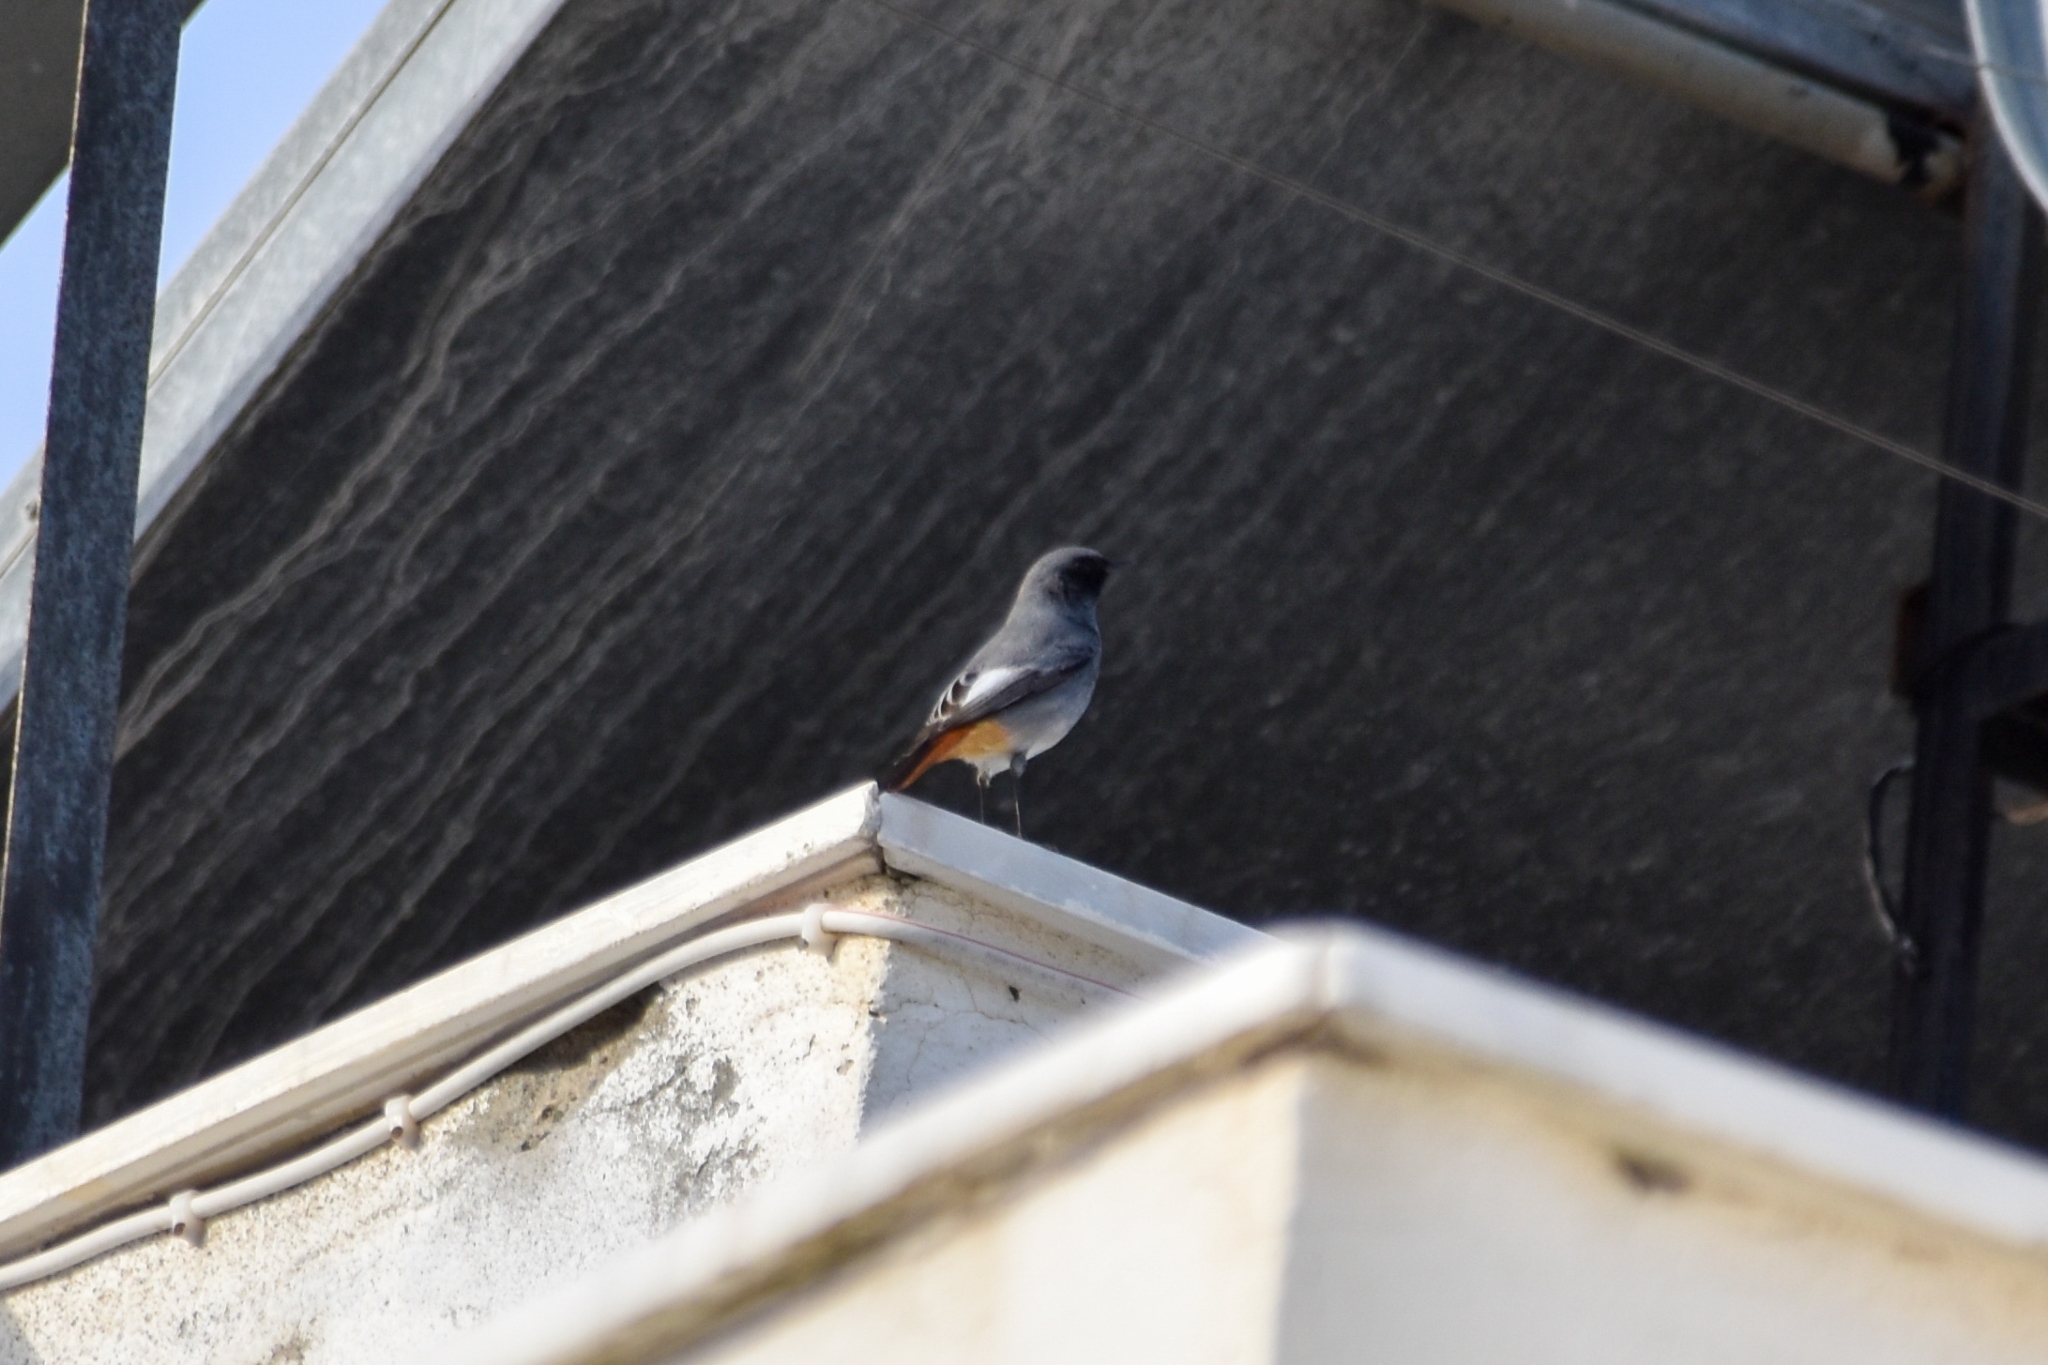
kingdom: Animalia
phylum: Chordata
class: Aves
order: Passeriformes
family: Muscicapidae
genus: Phoenicurus
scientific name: Phoenicurus ochruros
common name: Black redstart
